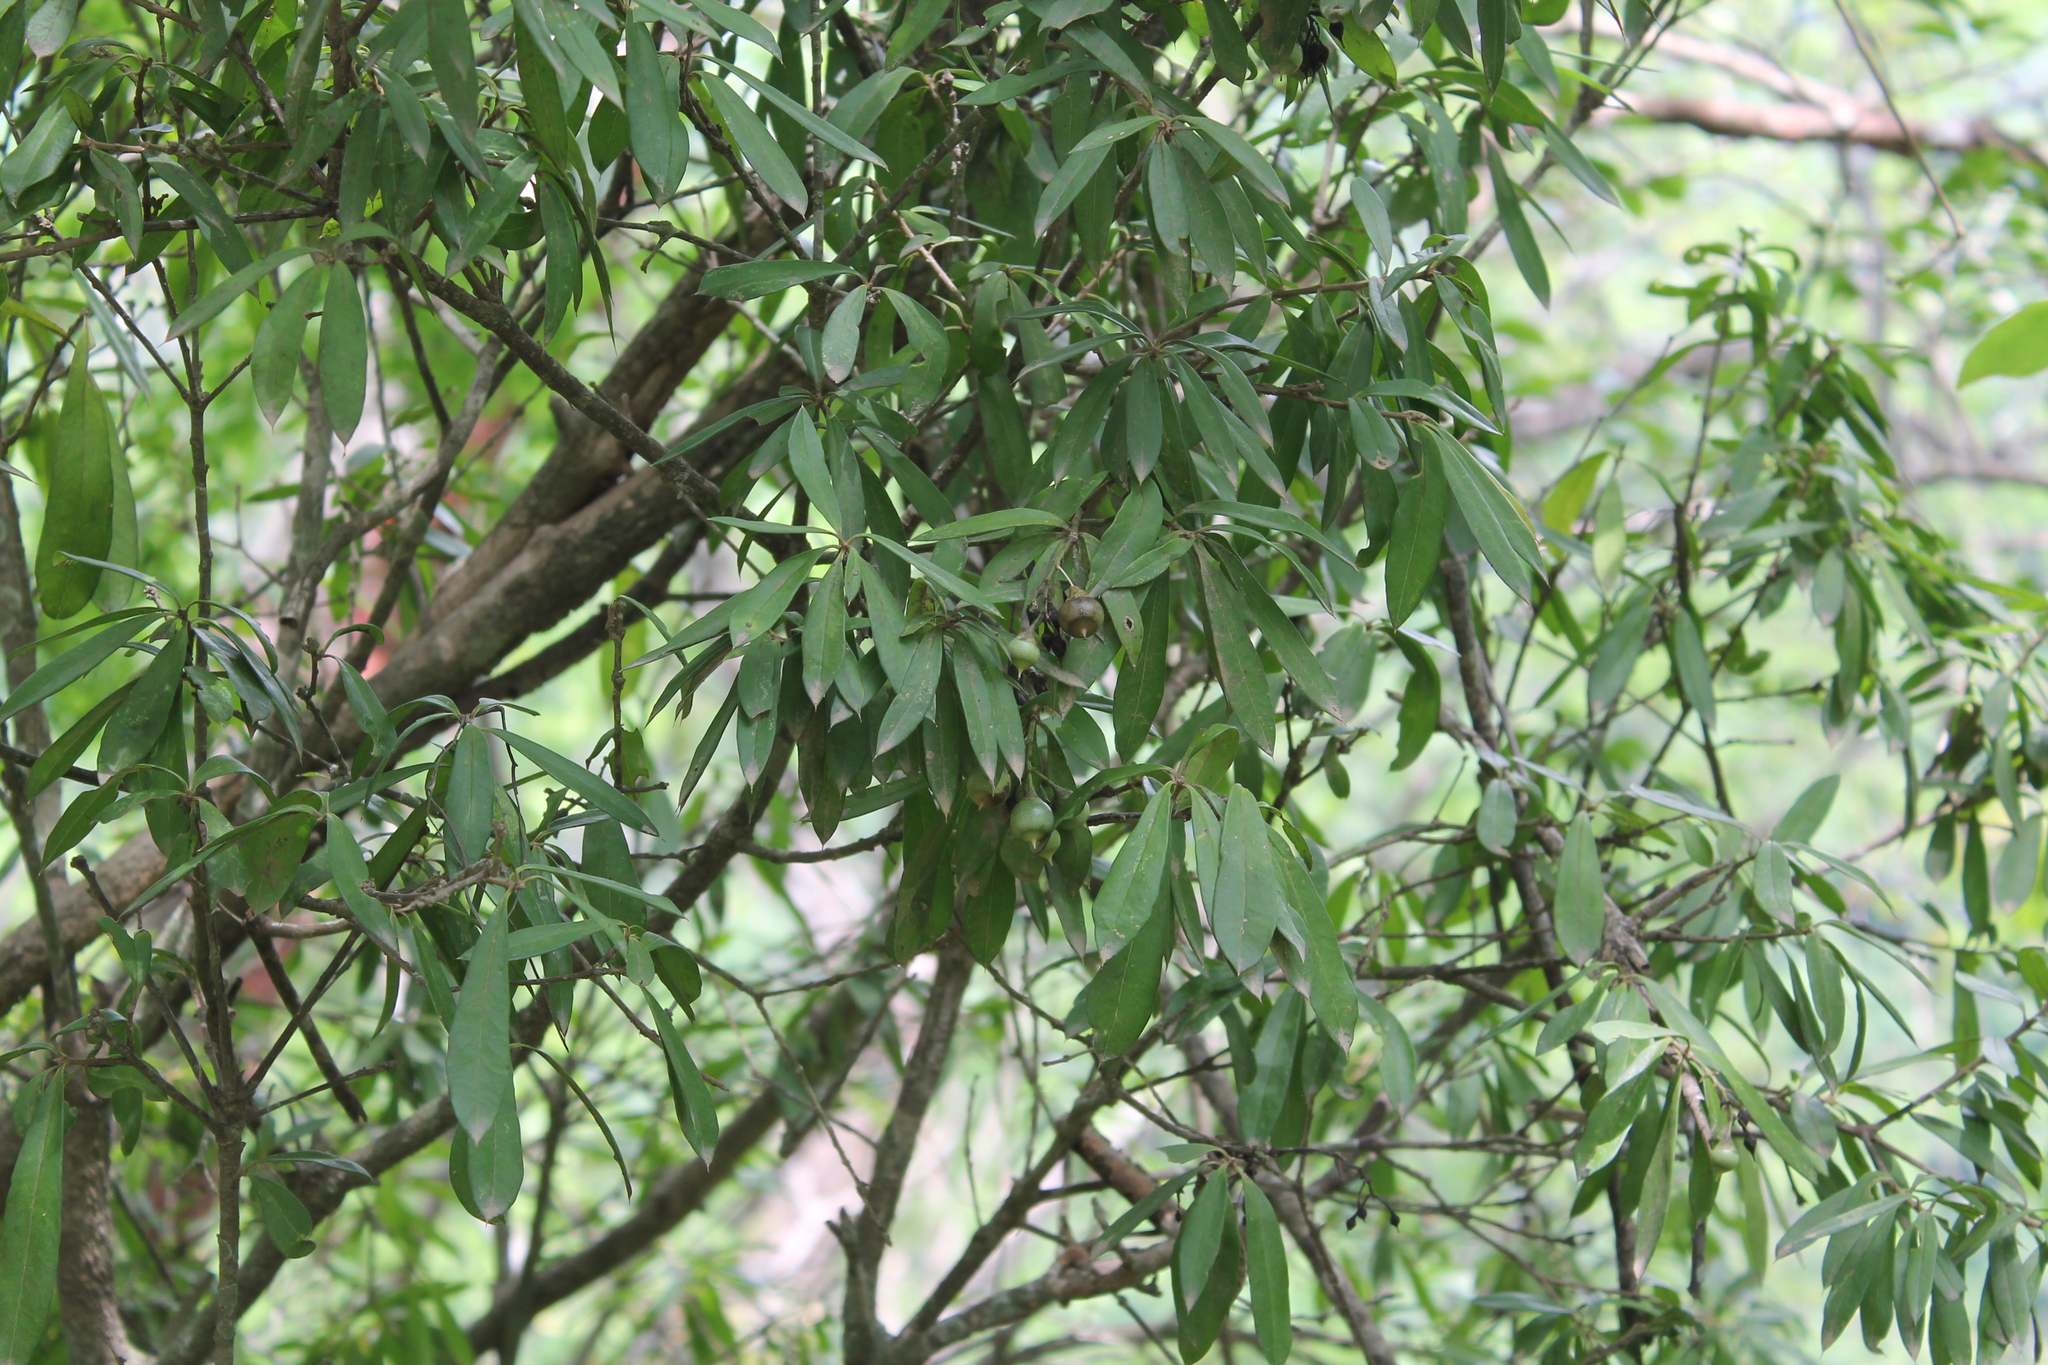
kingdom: Plantae
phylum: Tracheophyta
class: Magnoliopsida
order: Ericales
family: Primulaceae
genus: Bonellia
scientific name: Bonellia macrocarpa
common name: Primrose
